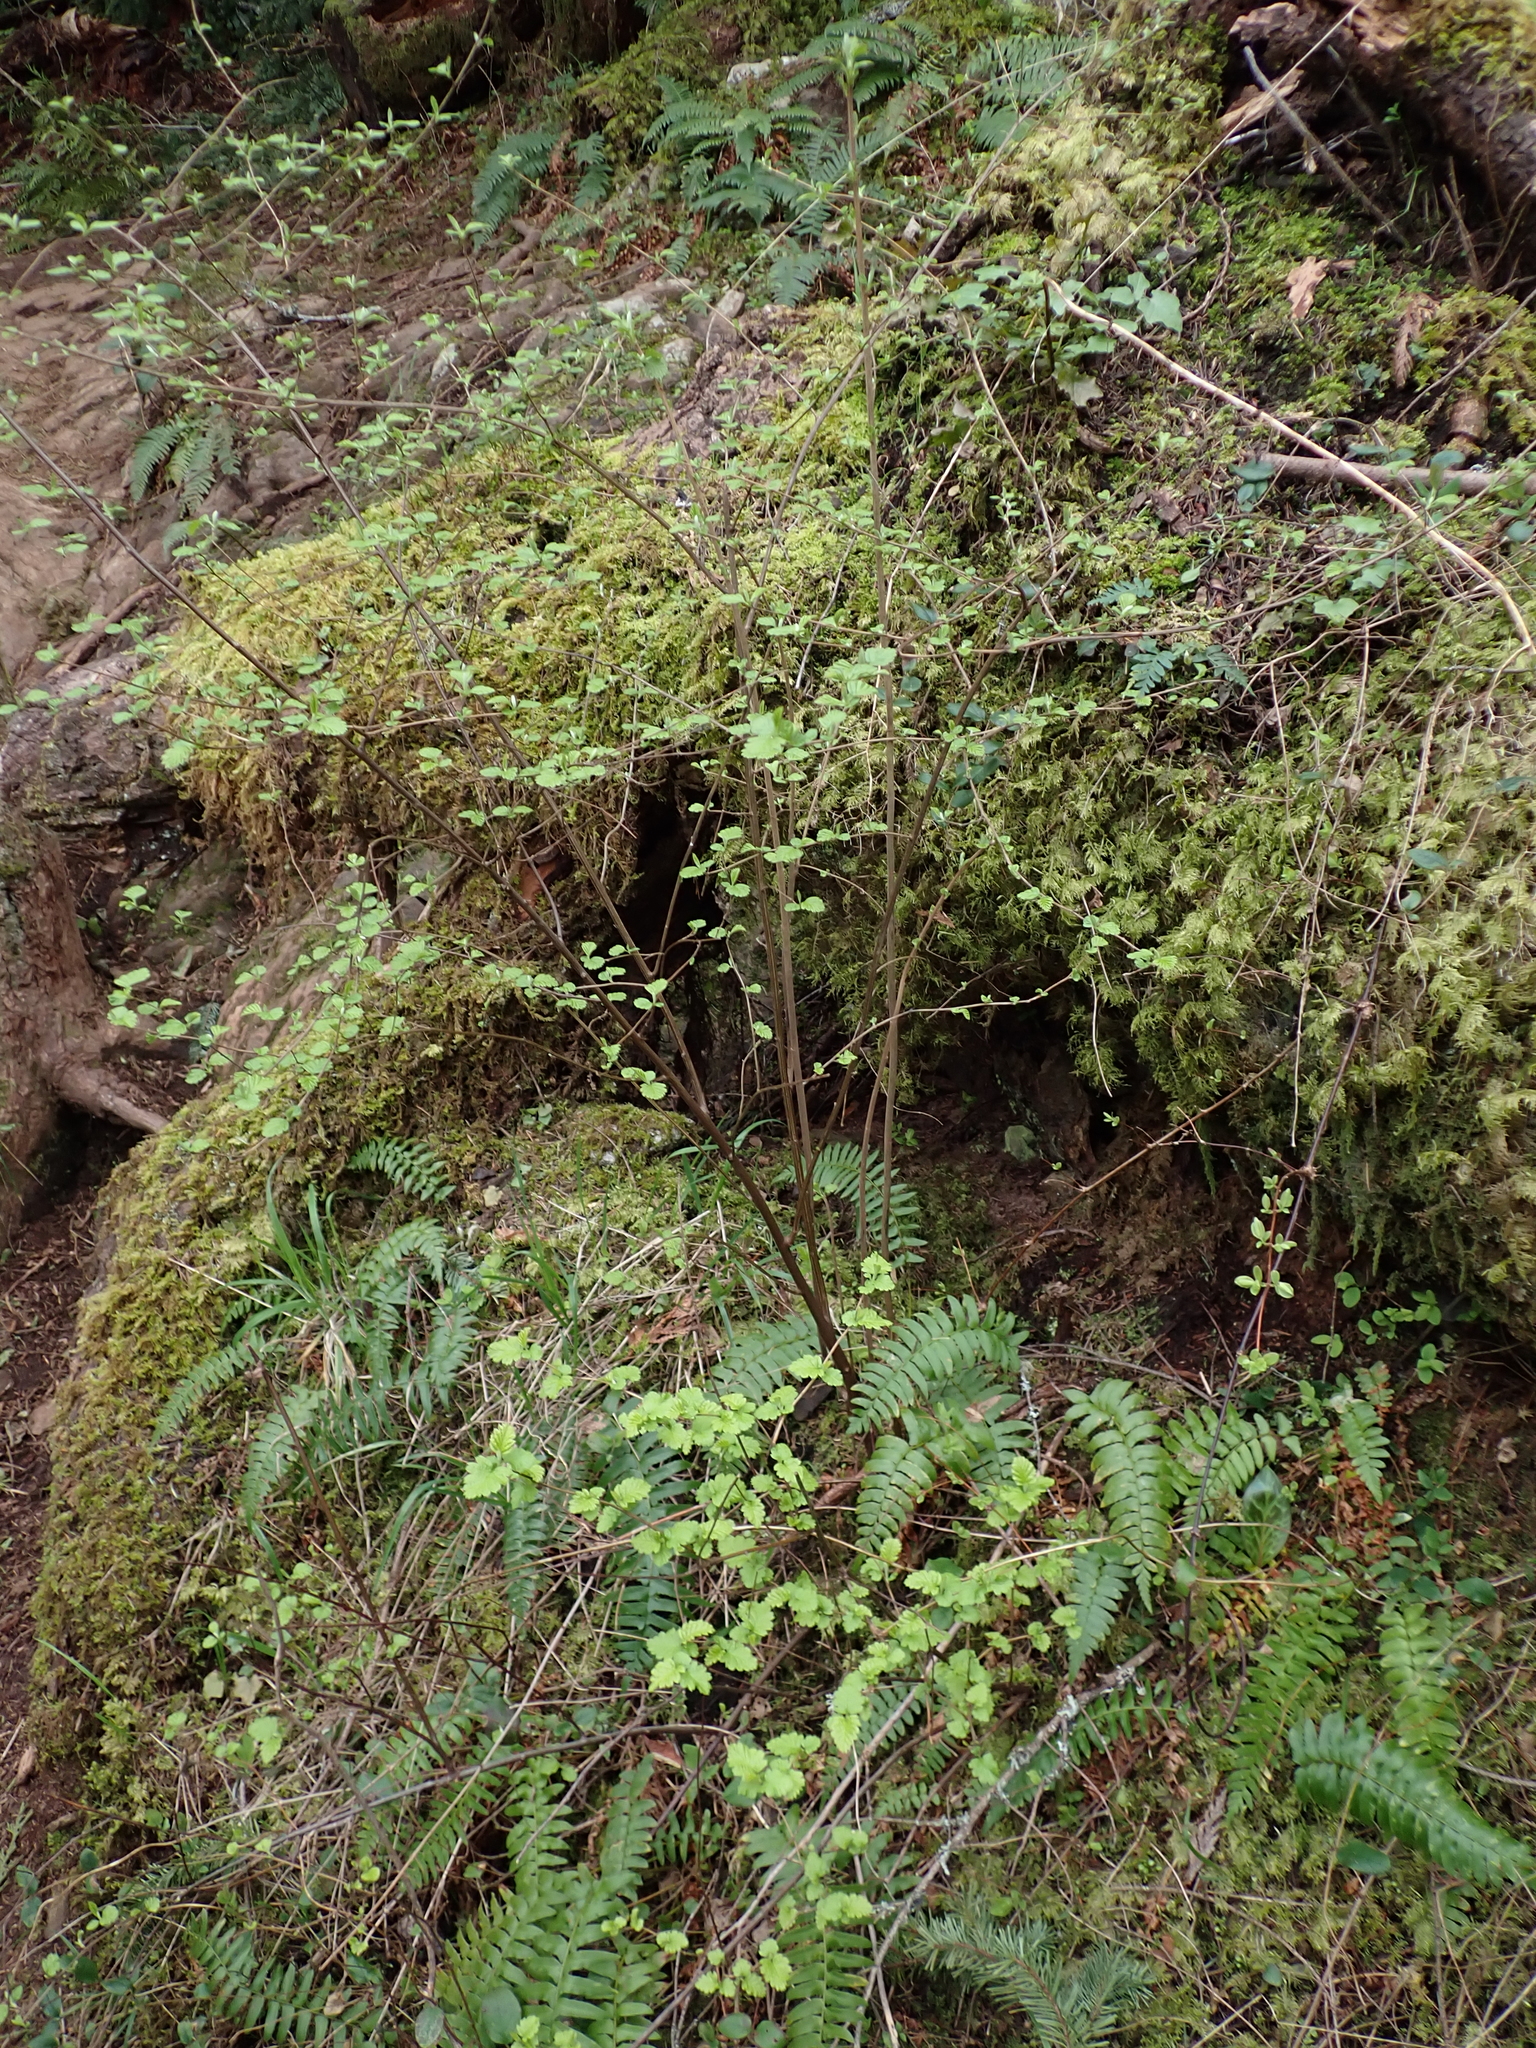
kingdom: Plantae
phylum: Tracheophyta
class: Magnoliopsida
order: Rosales
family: Rosaceae
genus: Holodiscus
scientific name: Holodiscus discolor
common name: Oceanspray
